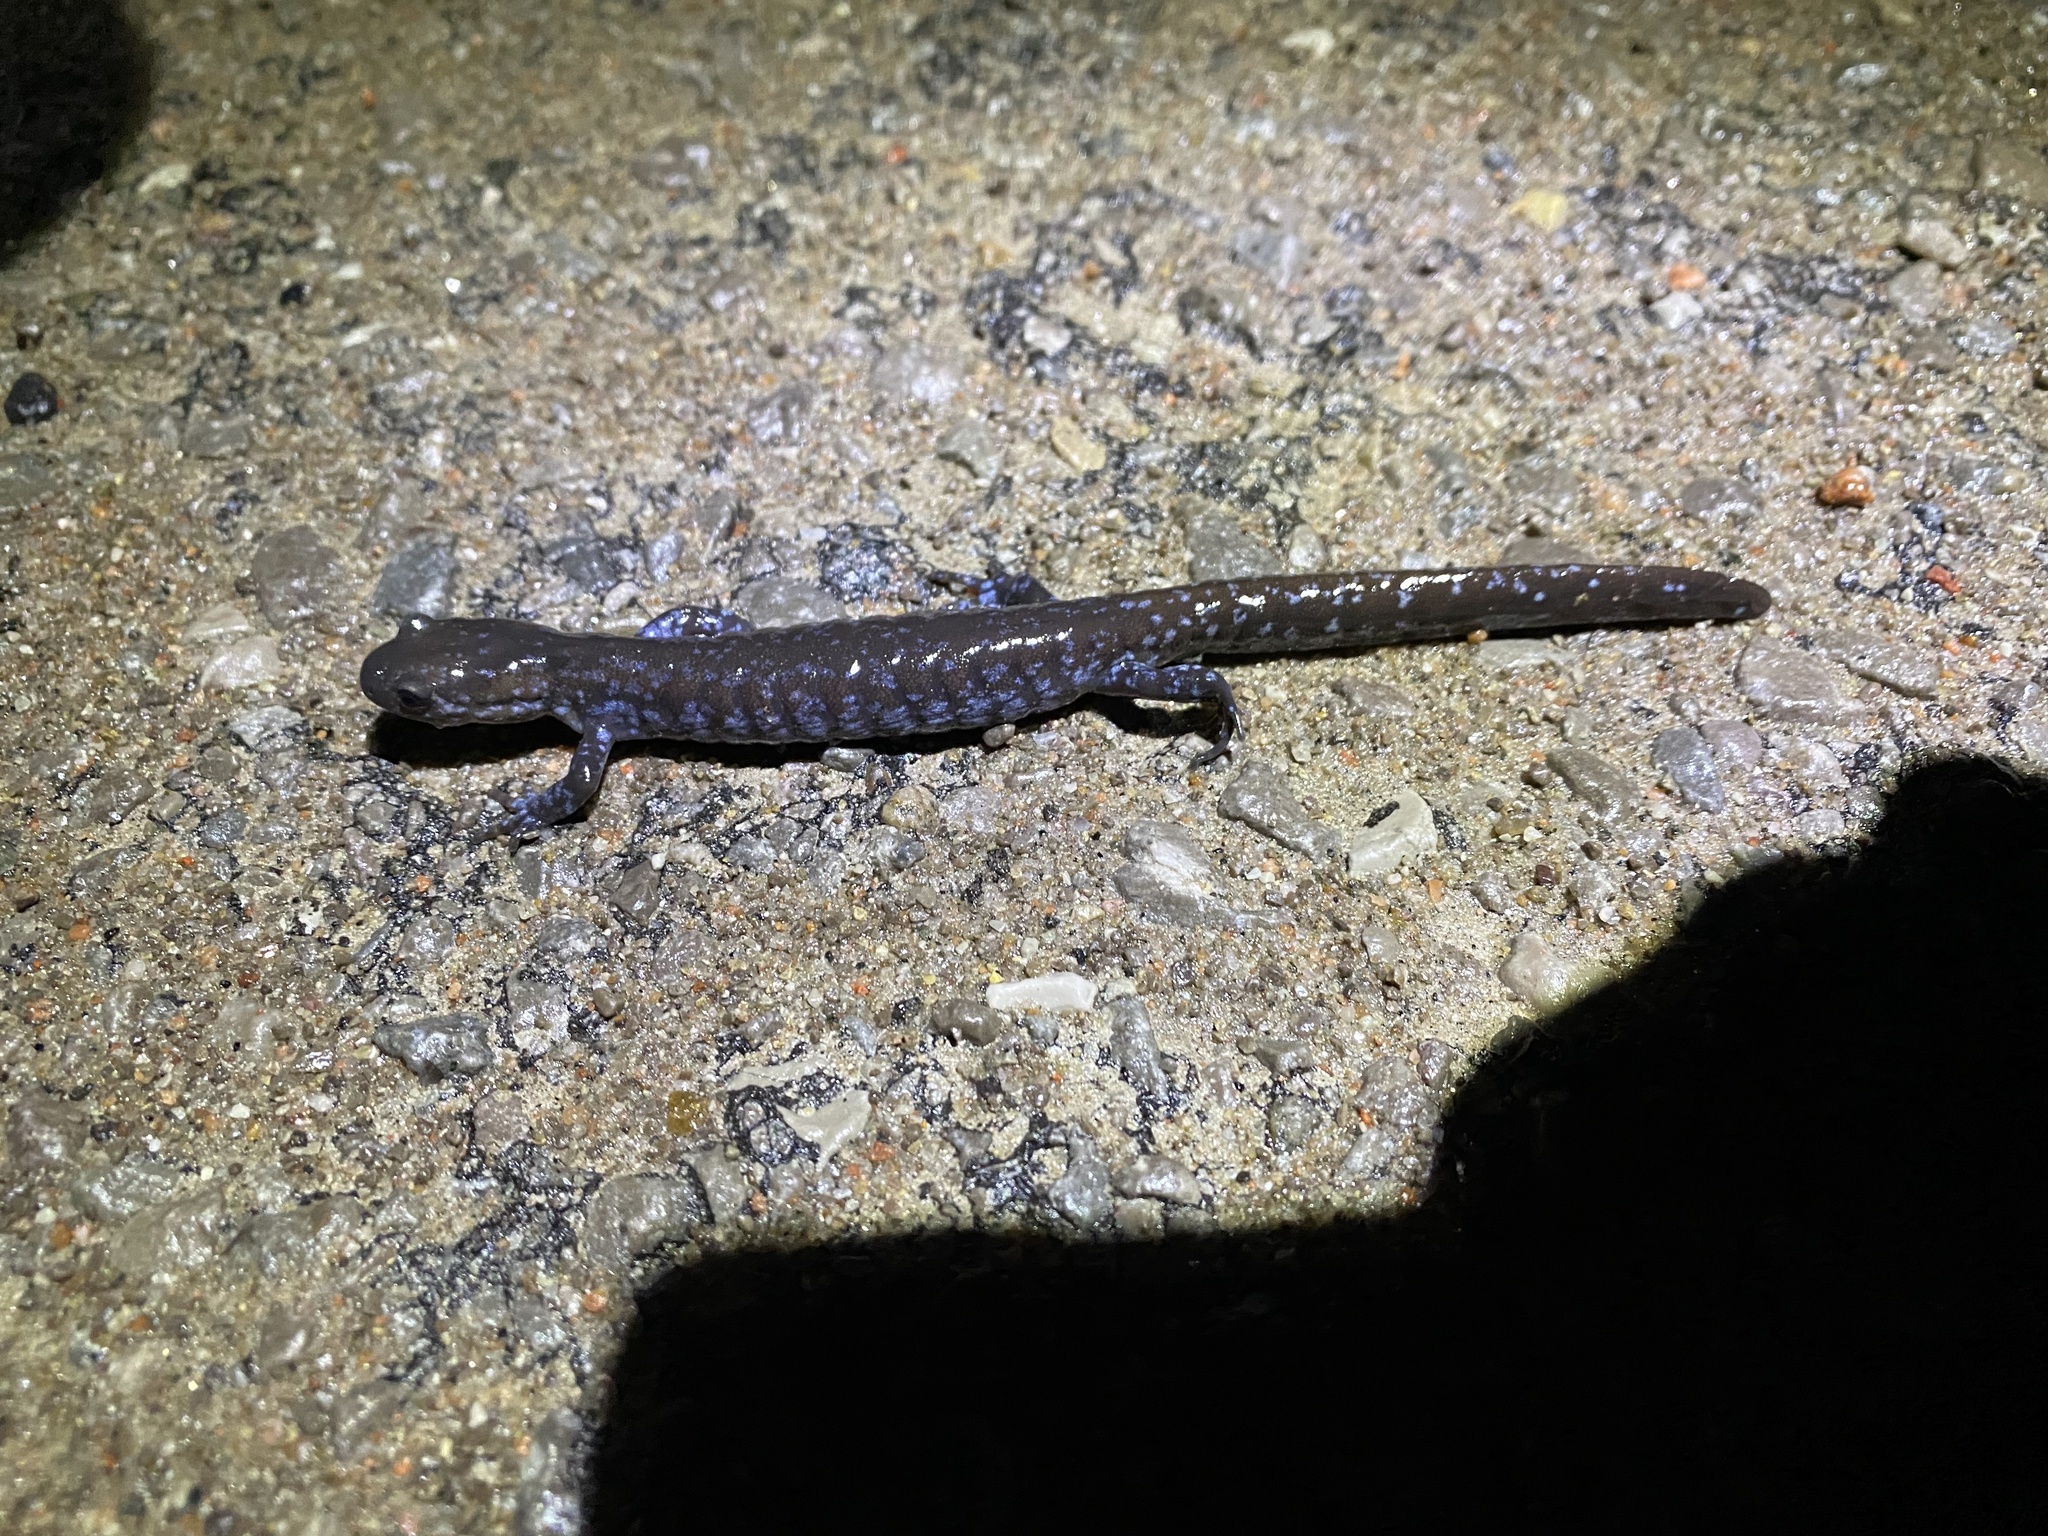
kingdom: Animalia
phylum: Chordata
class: Amphibia
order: Caudata
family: Ambystomatidae
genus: Ambystoma
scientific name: Ambystoma laterale
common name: Blue-spotted salamander
